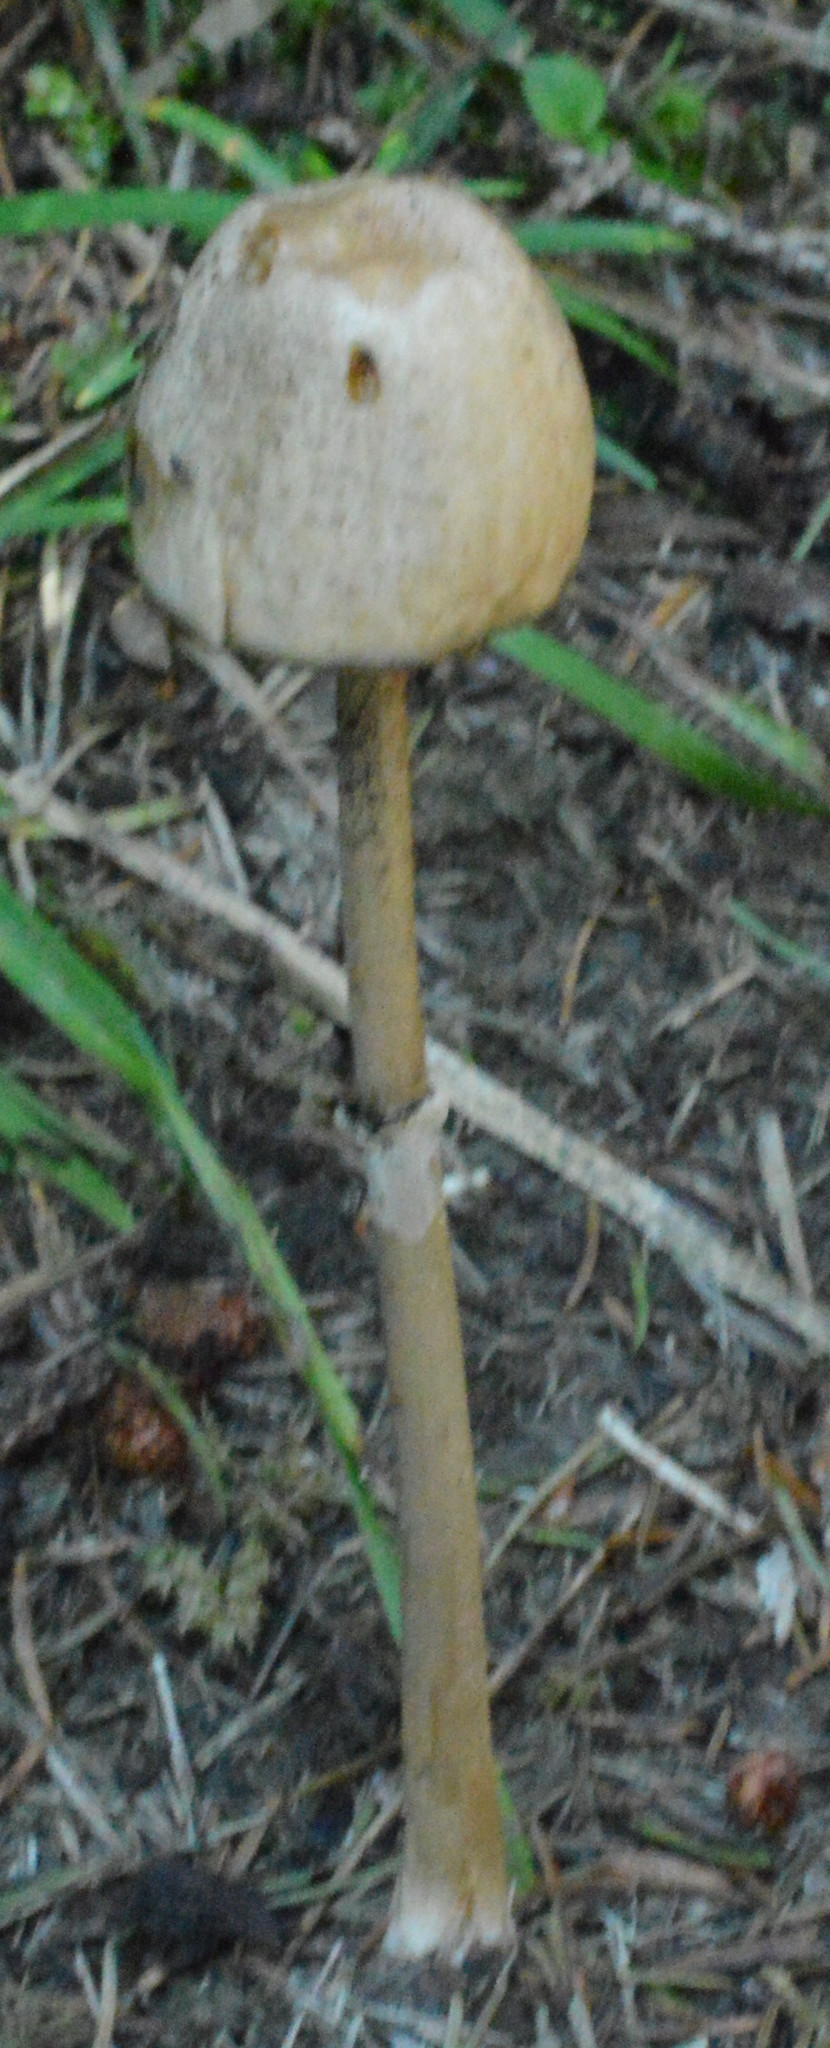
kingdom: Fungi
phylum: Basidiomycota
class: Agaricomycetes
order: Agaricales
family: Bolbitiaceae
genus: Panaeolus
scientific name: Panaeolus semiovatus
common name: Shiny mottlegill
